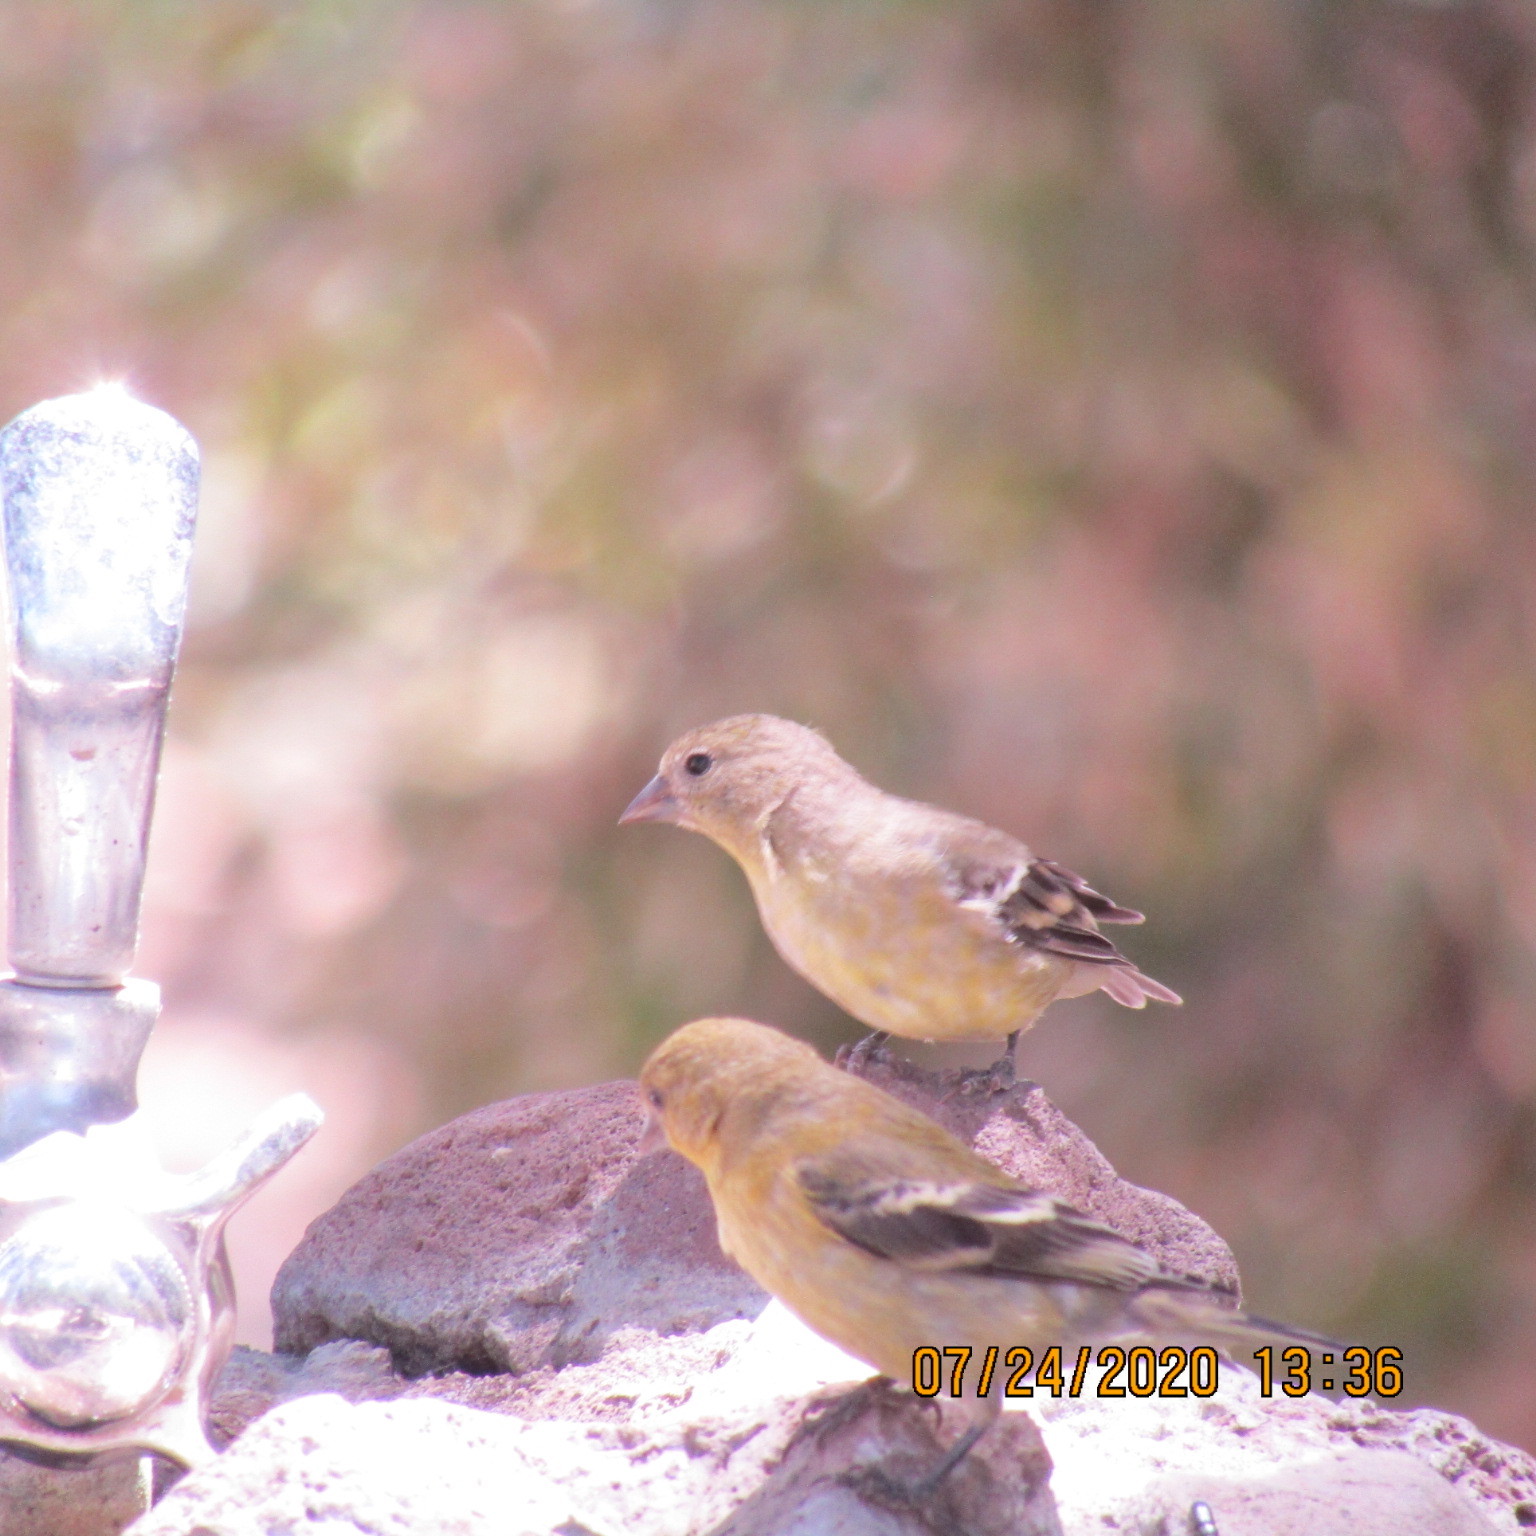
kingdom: Animalia
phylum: Chordata
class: Aves
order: Passeriformes
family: Fringillidae
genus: Spinus
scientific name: Spinus psaltria
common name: Lesser goldfinch
